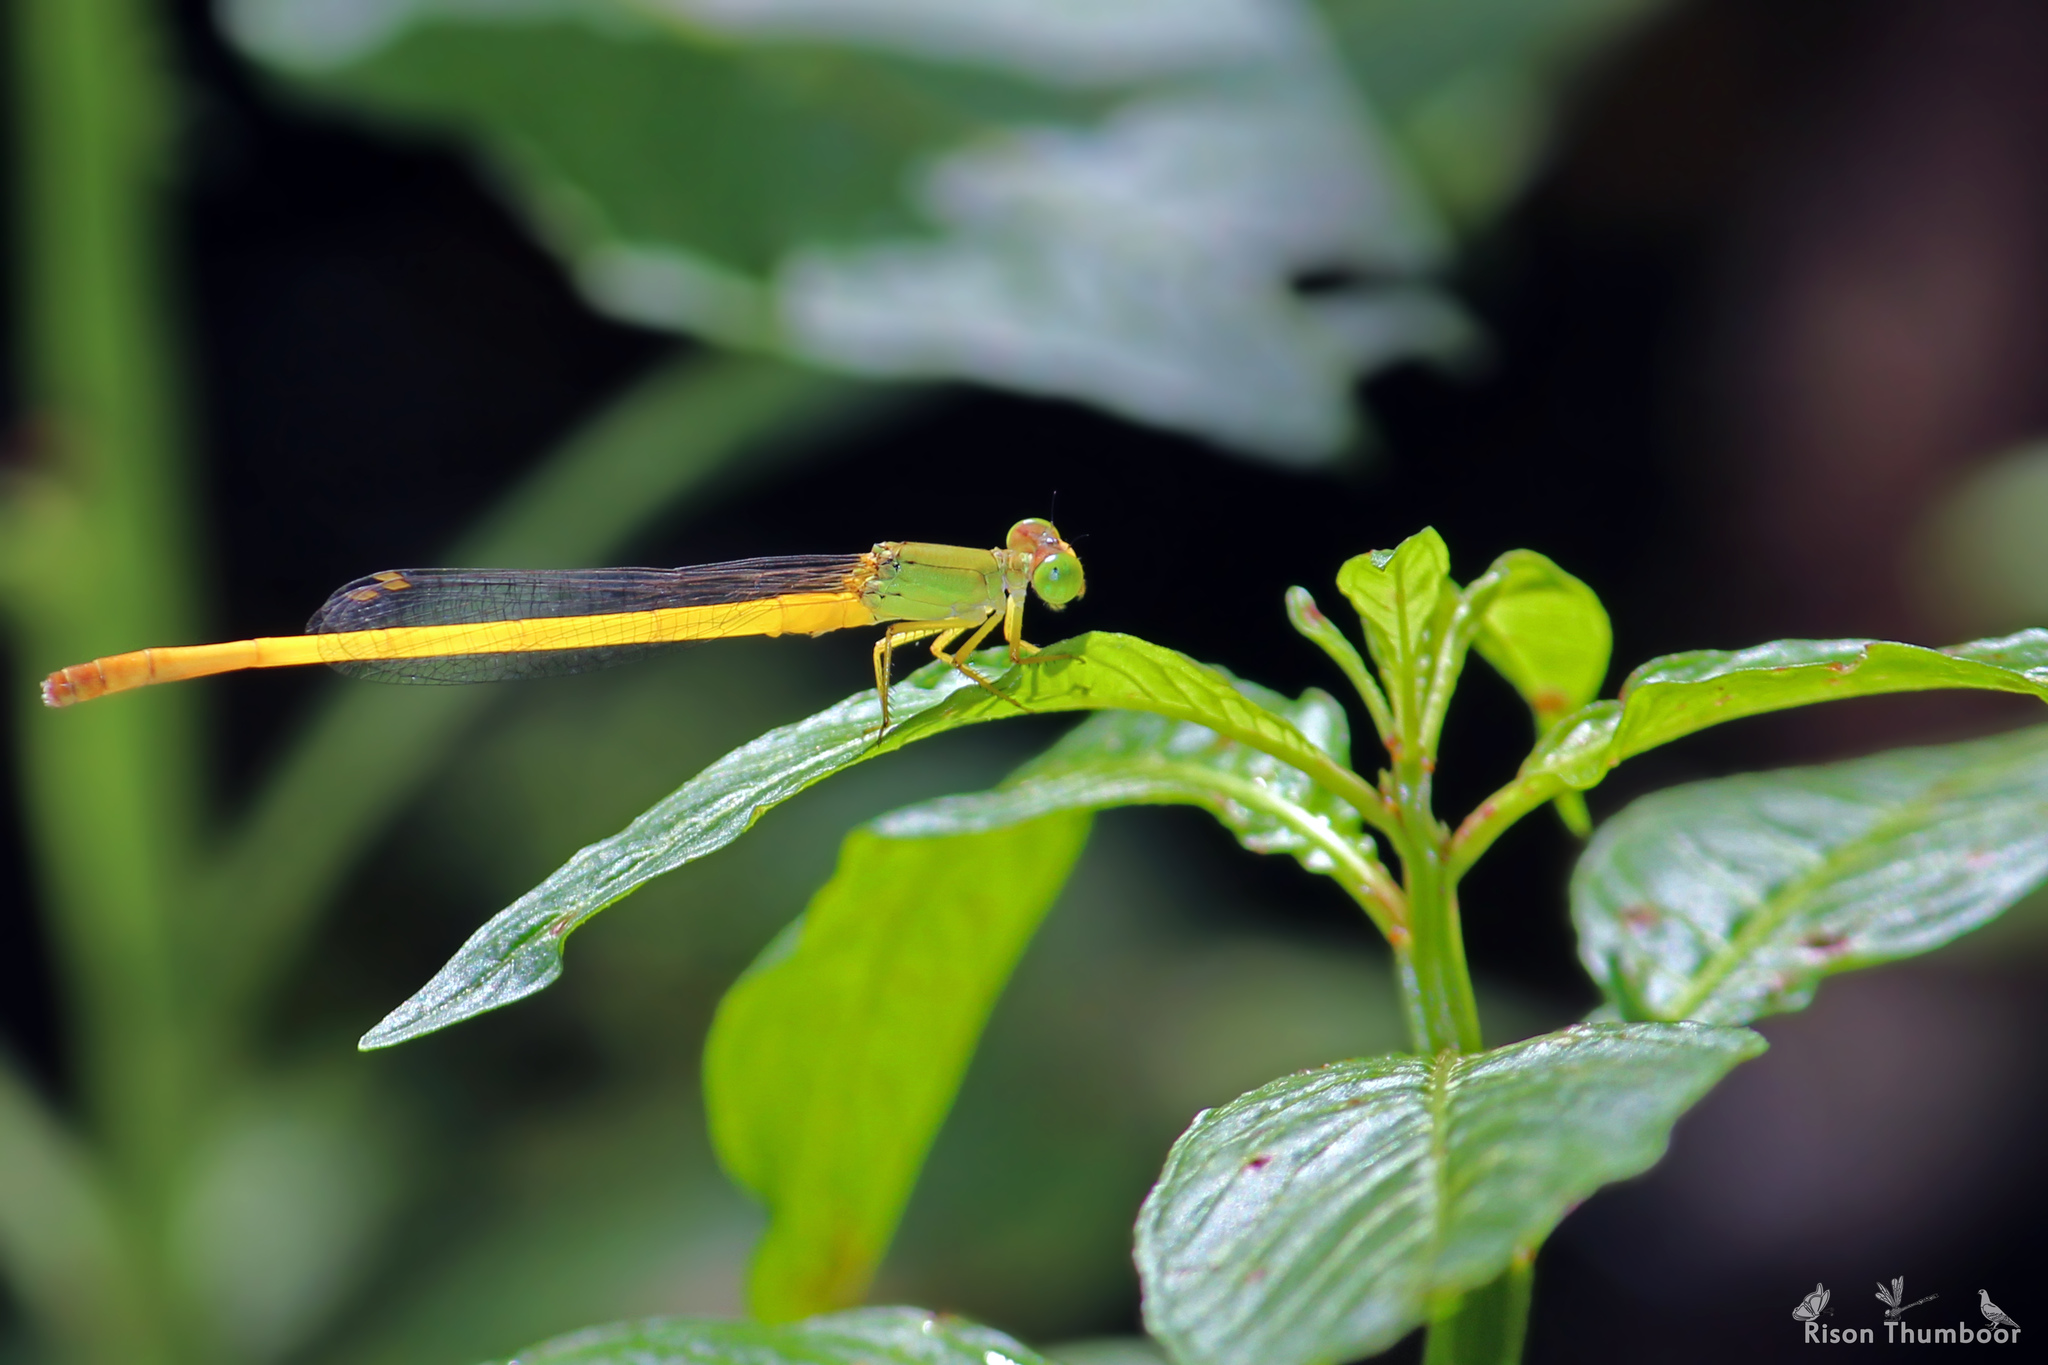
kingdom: Animalia
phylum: Arthropoda
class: Insecta
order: Odonata
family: Coenagrionidae
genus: Ceriagrion
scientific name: Ceriagrion coromandelianum
